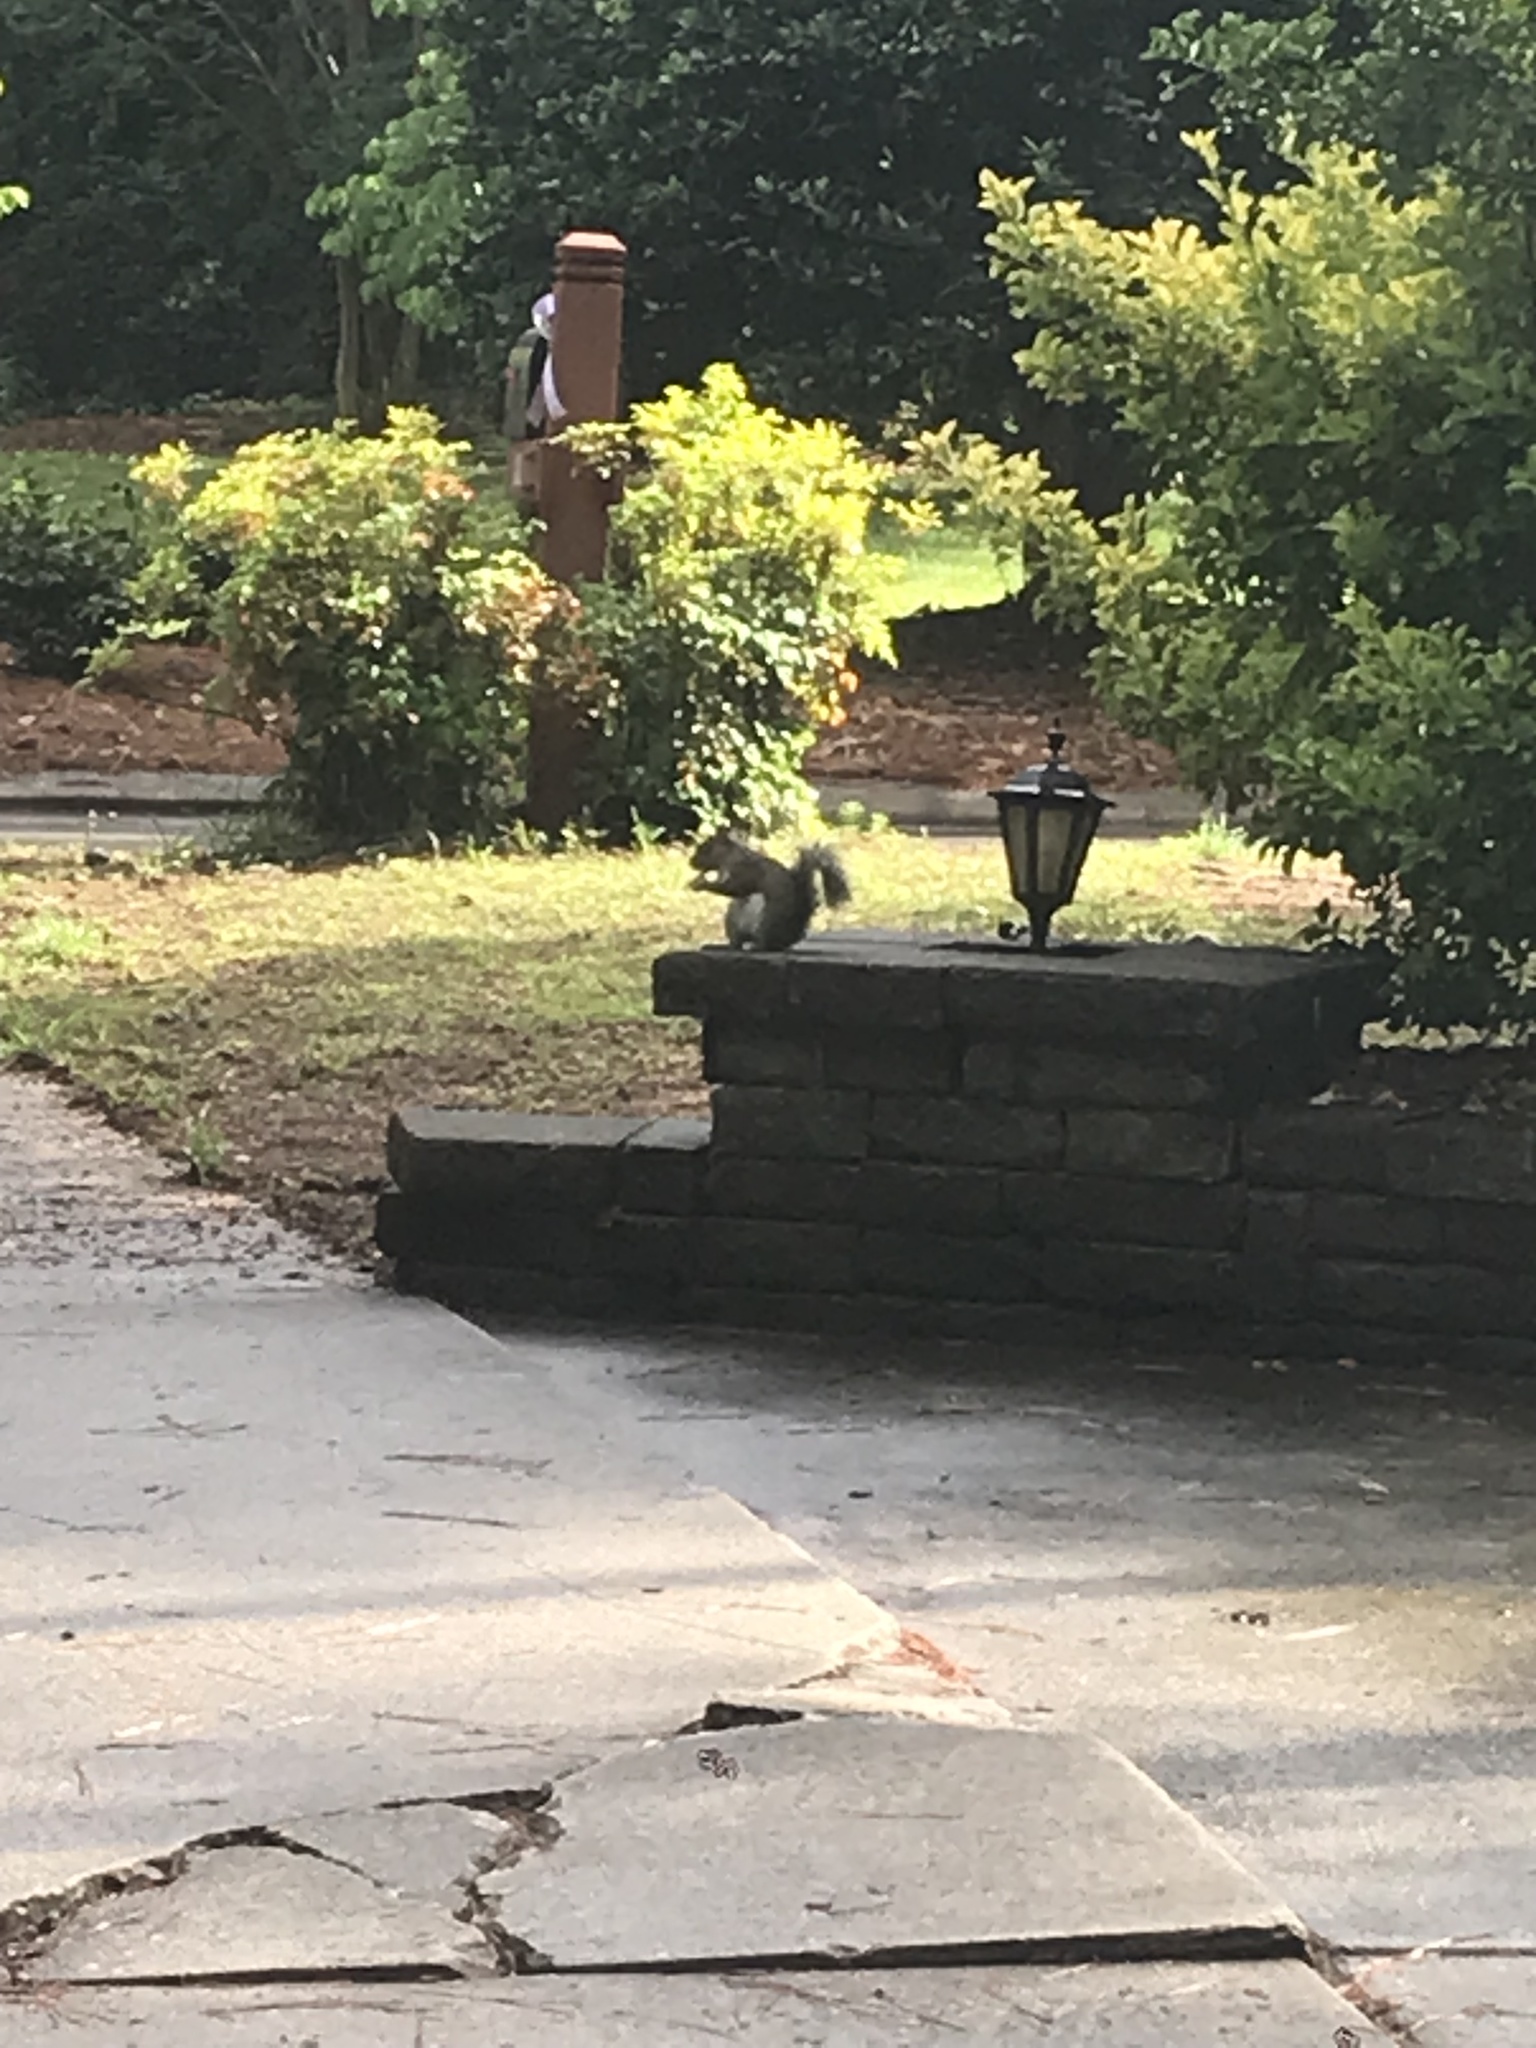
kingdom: Animalia
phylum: Chordata
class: Mammalia
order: Rodentia
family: Sciuridae
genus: Sciurus
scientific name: Sciurus carolinensis
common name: Eastern gray squirrel
